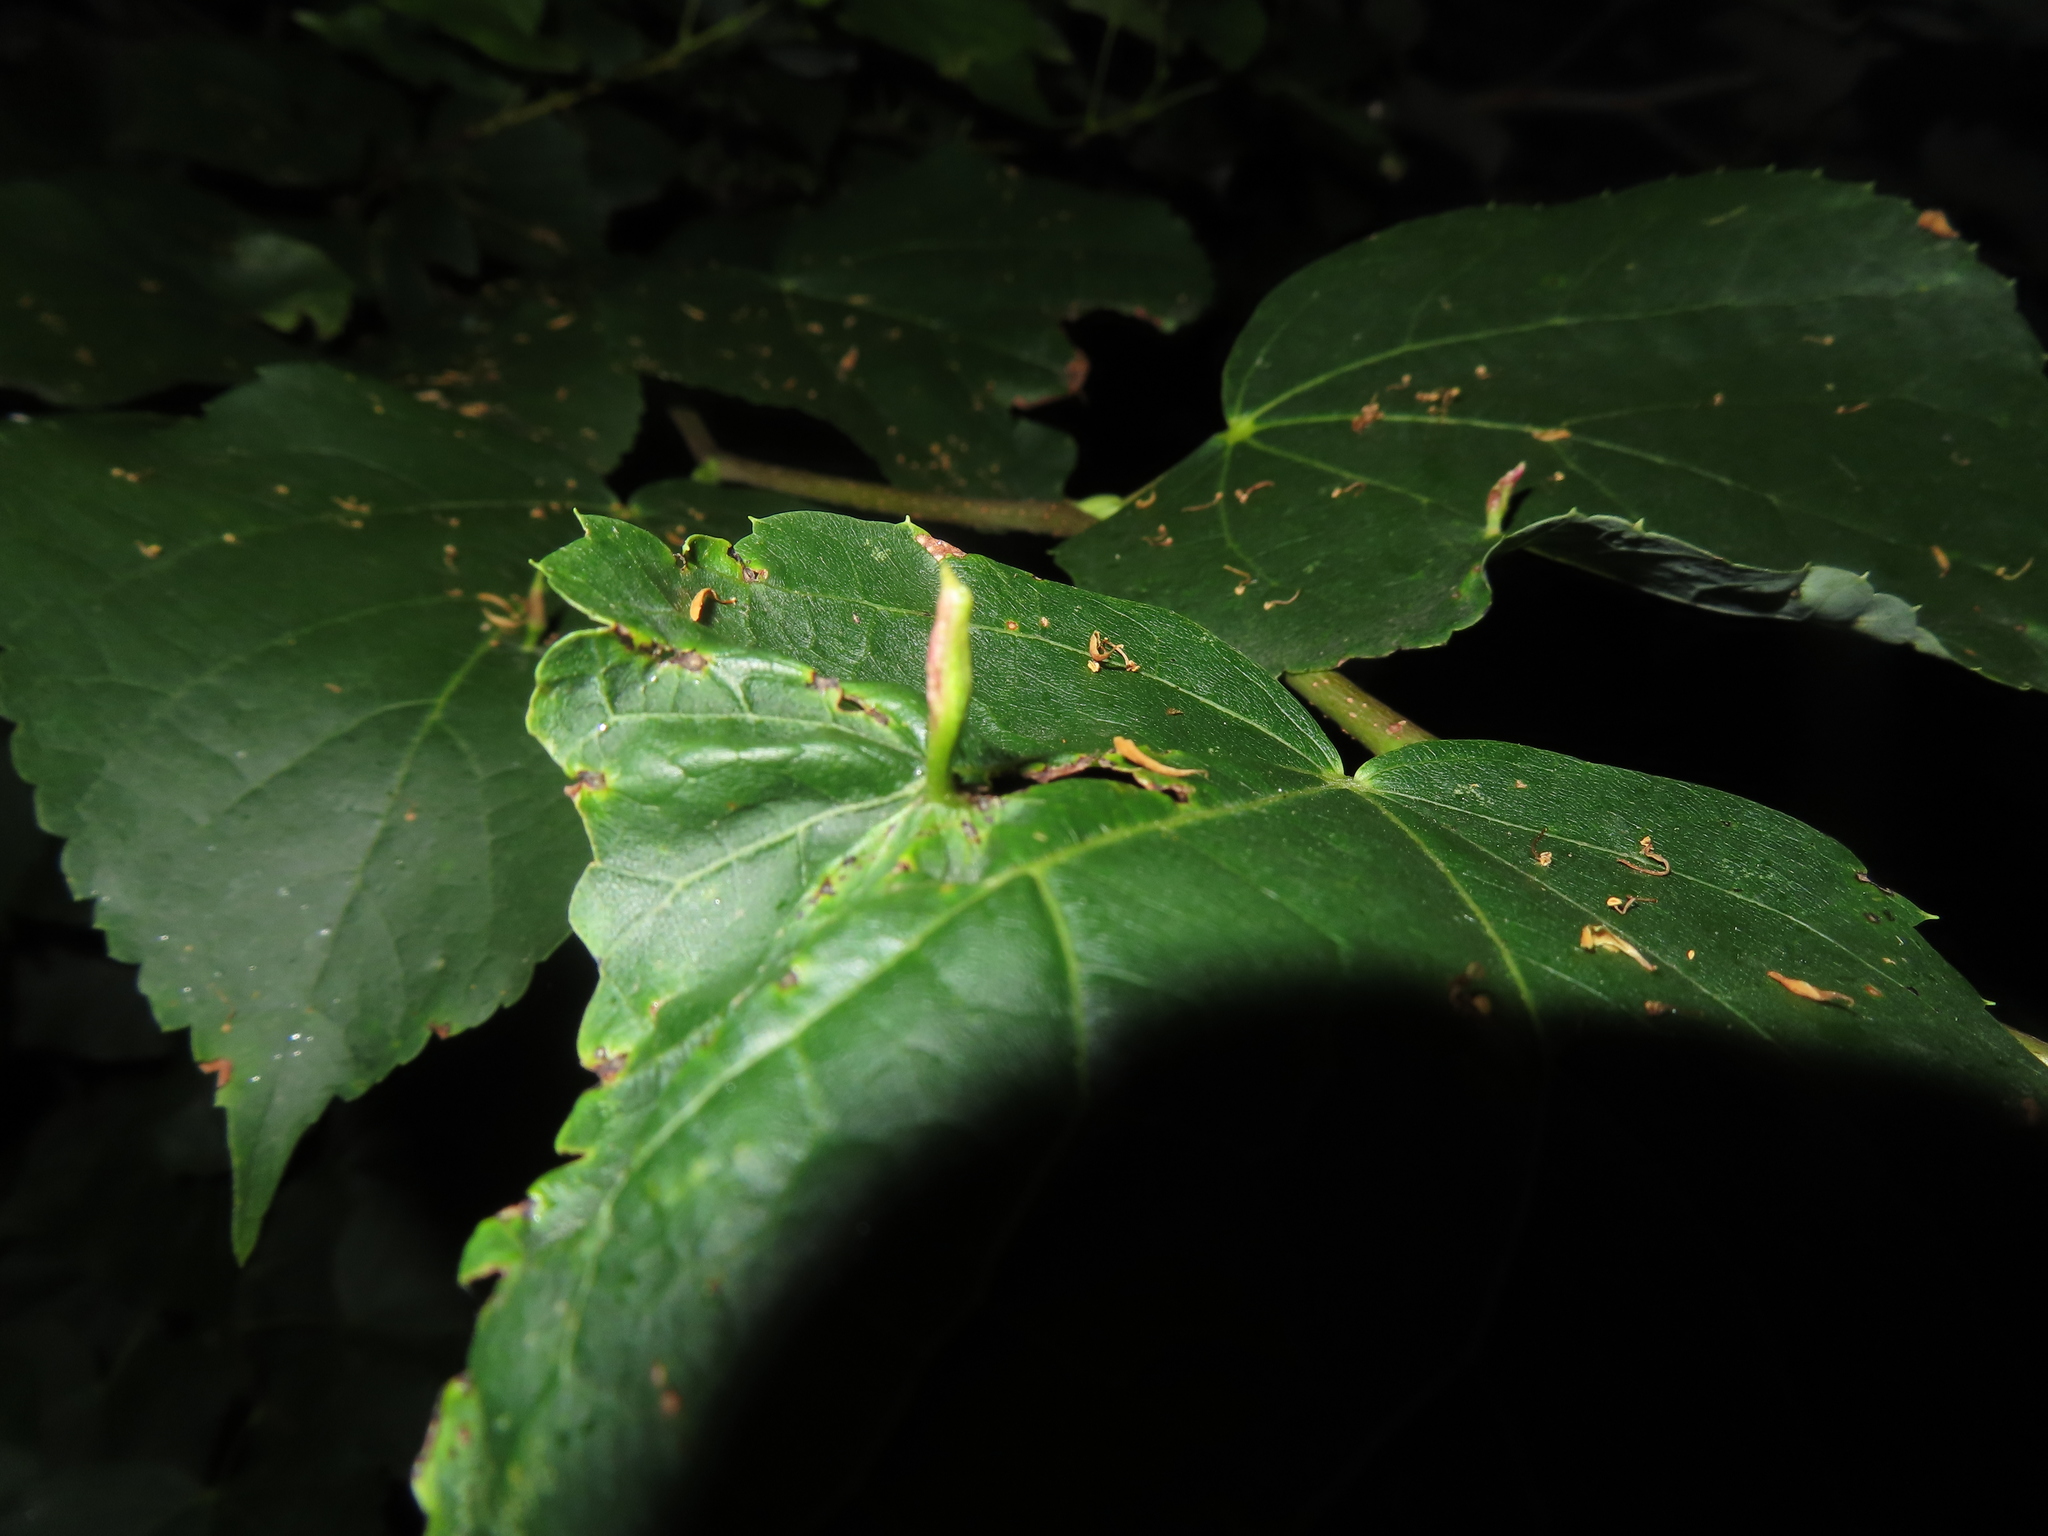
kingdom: Plantae
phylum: Tracheophyta
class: Magnoliopsida
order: Malvales
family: Malvaceae
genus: Tilia
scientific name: Tilia cordata
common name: Small-leaved lime
